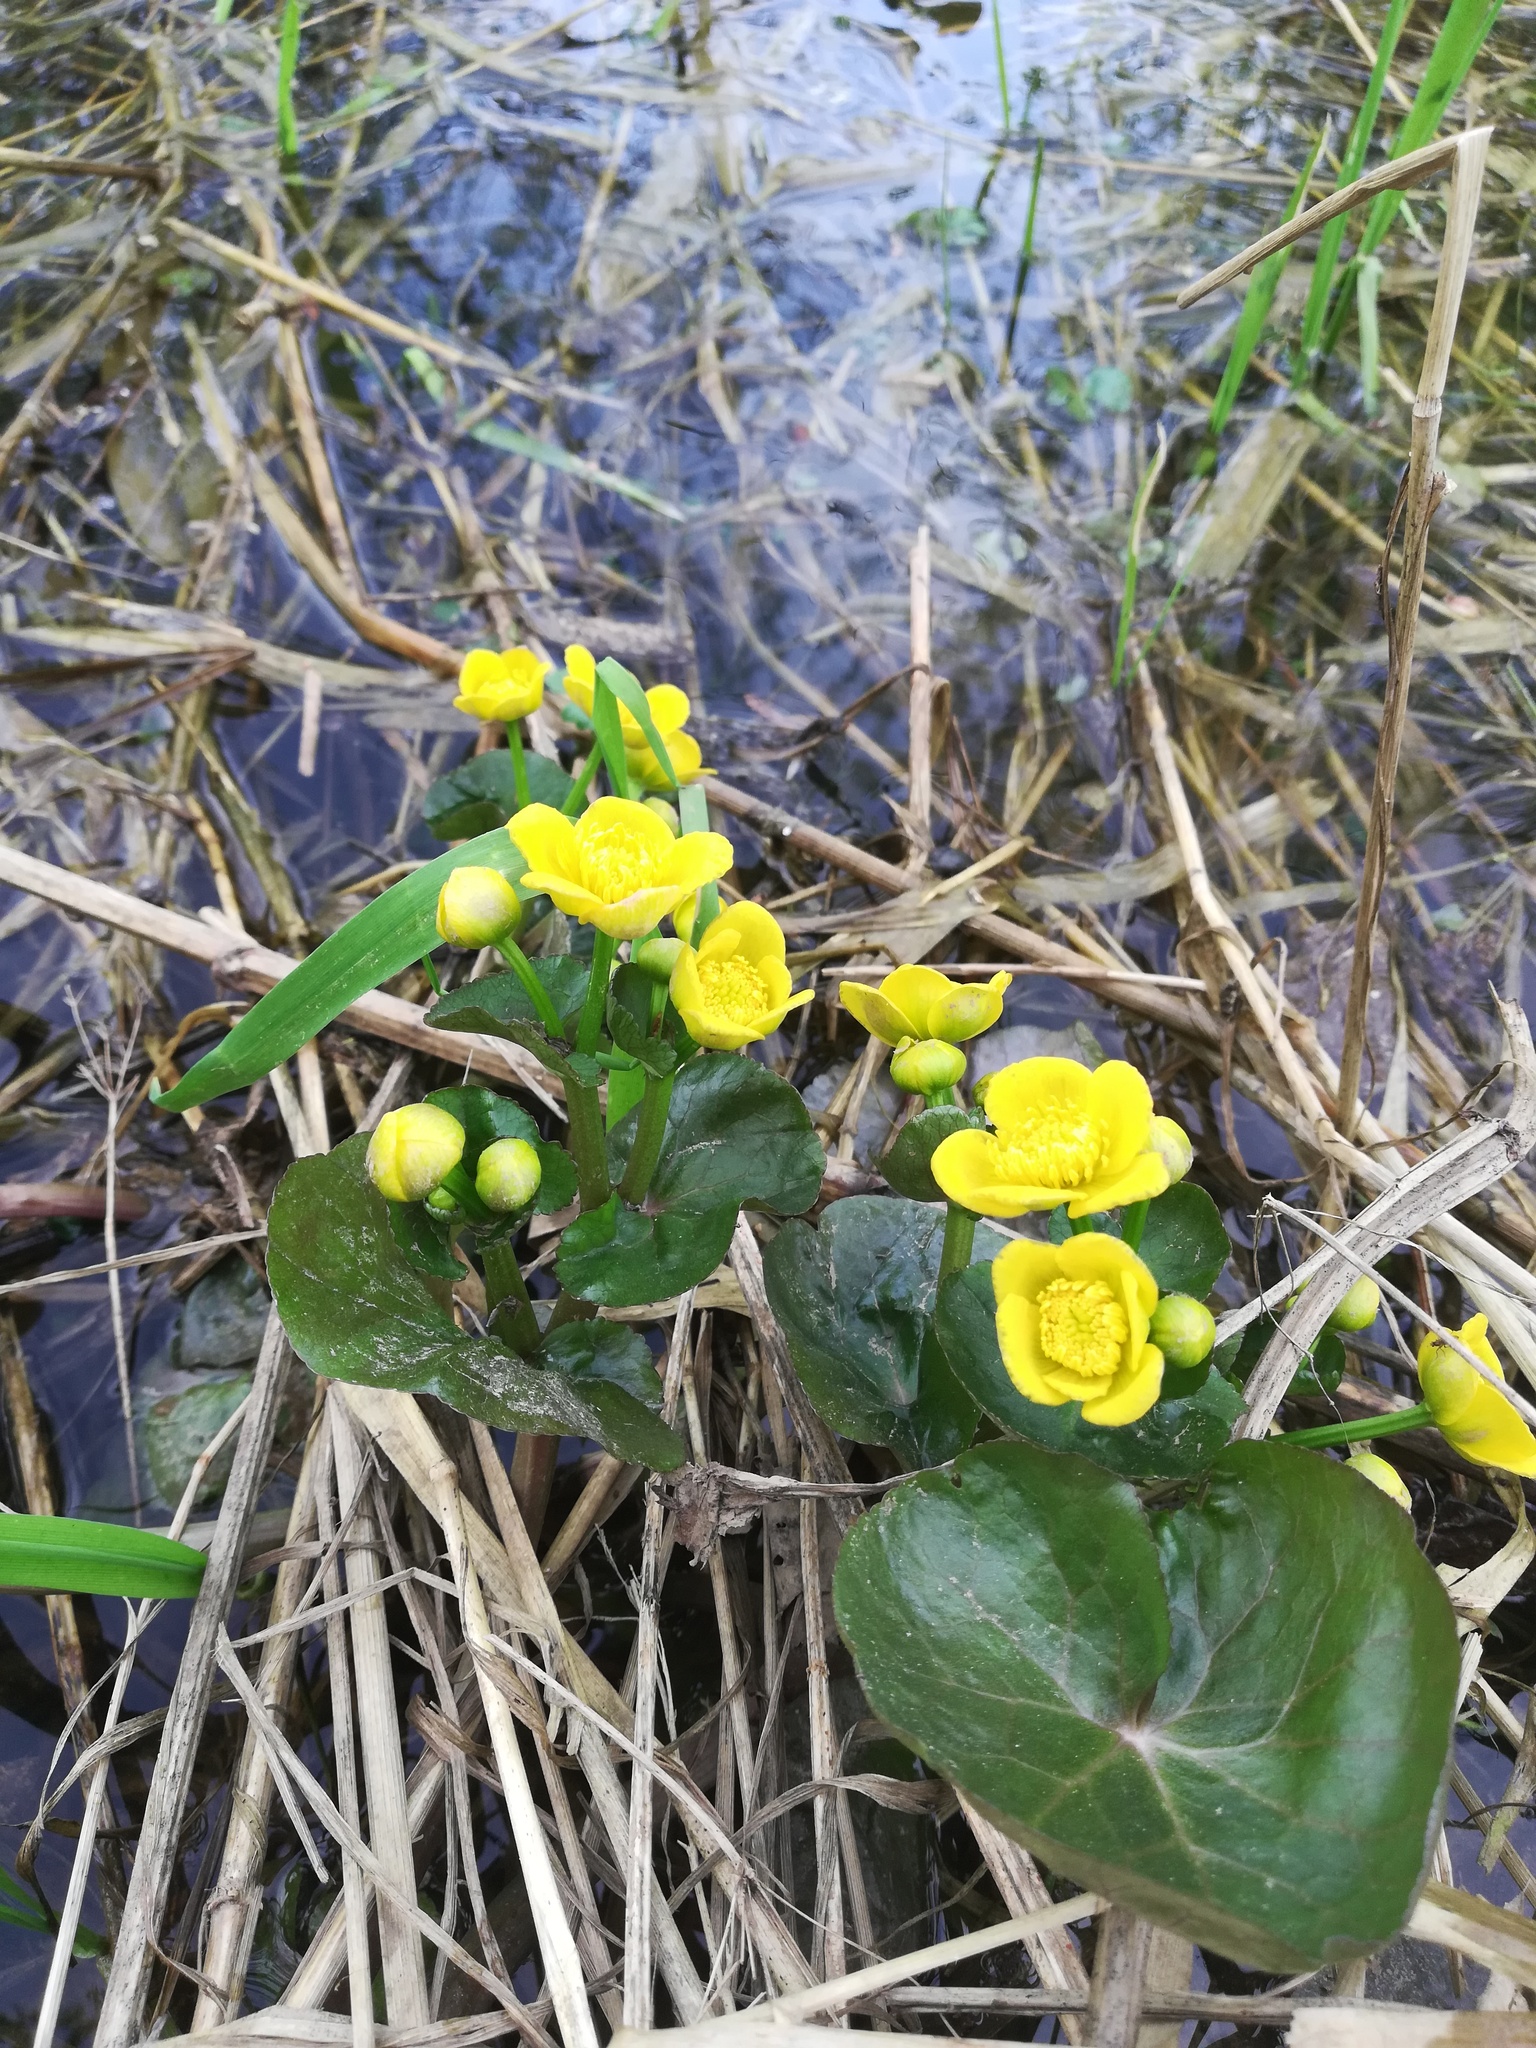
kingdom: Plantae
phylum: Tracheophyta
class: Magnoliopsida
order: Ranunculales
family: Ranunculaceae
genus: Caltha
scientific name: Caltha palustris
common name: Marsh marigold
